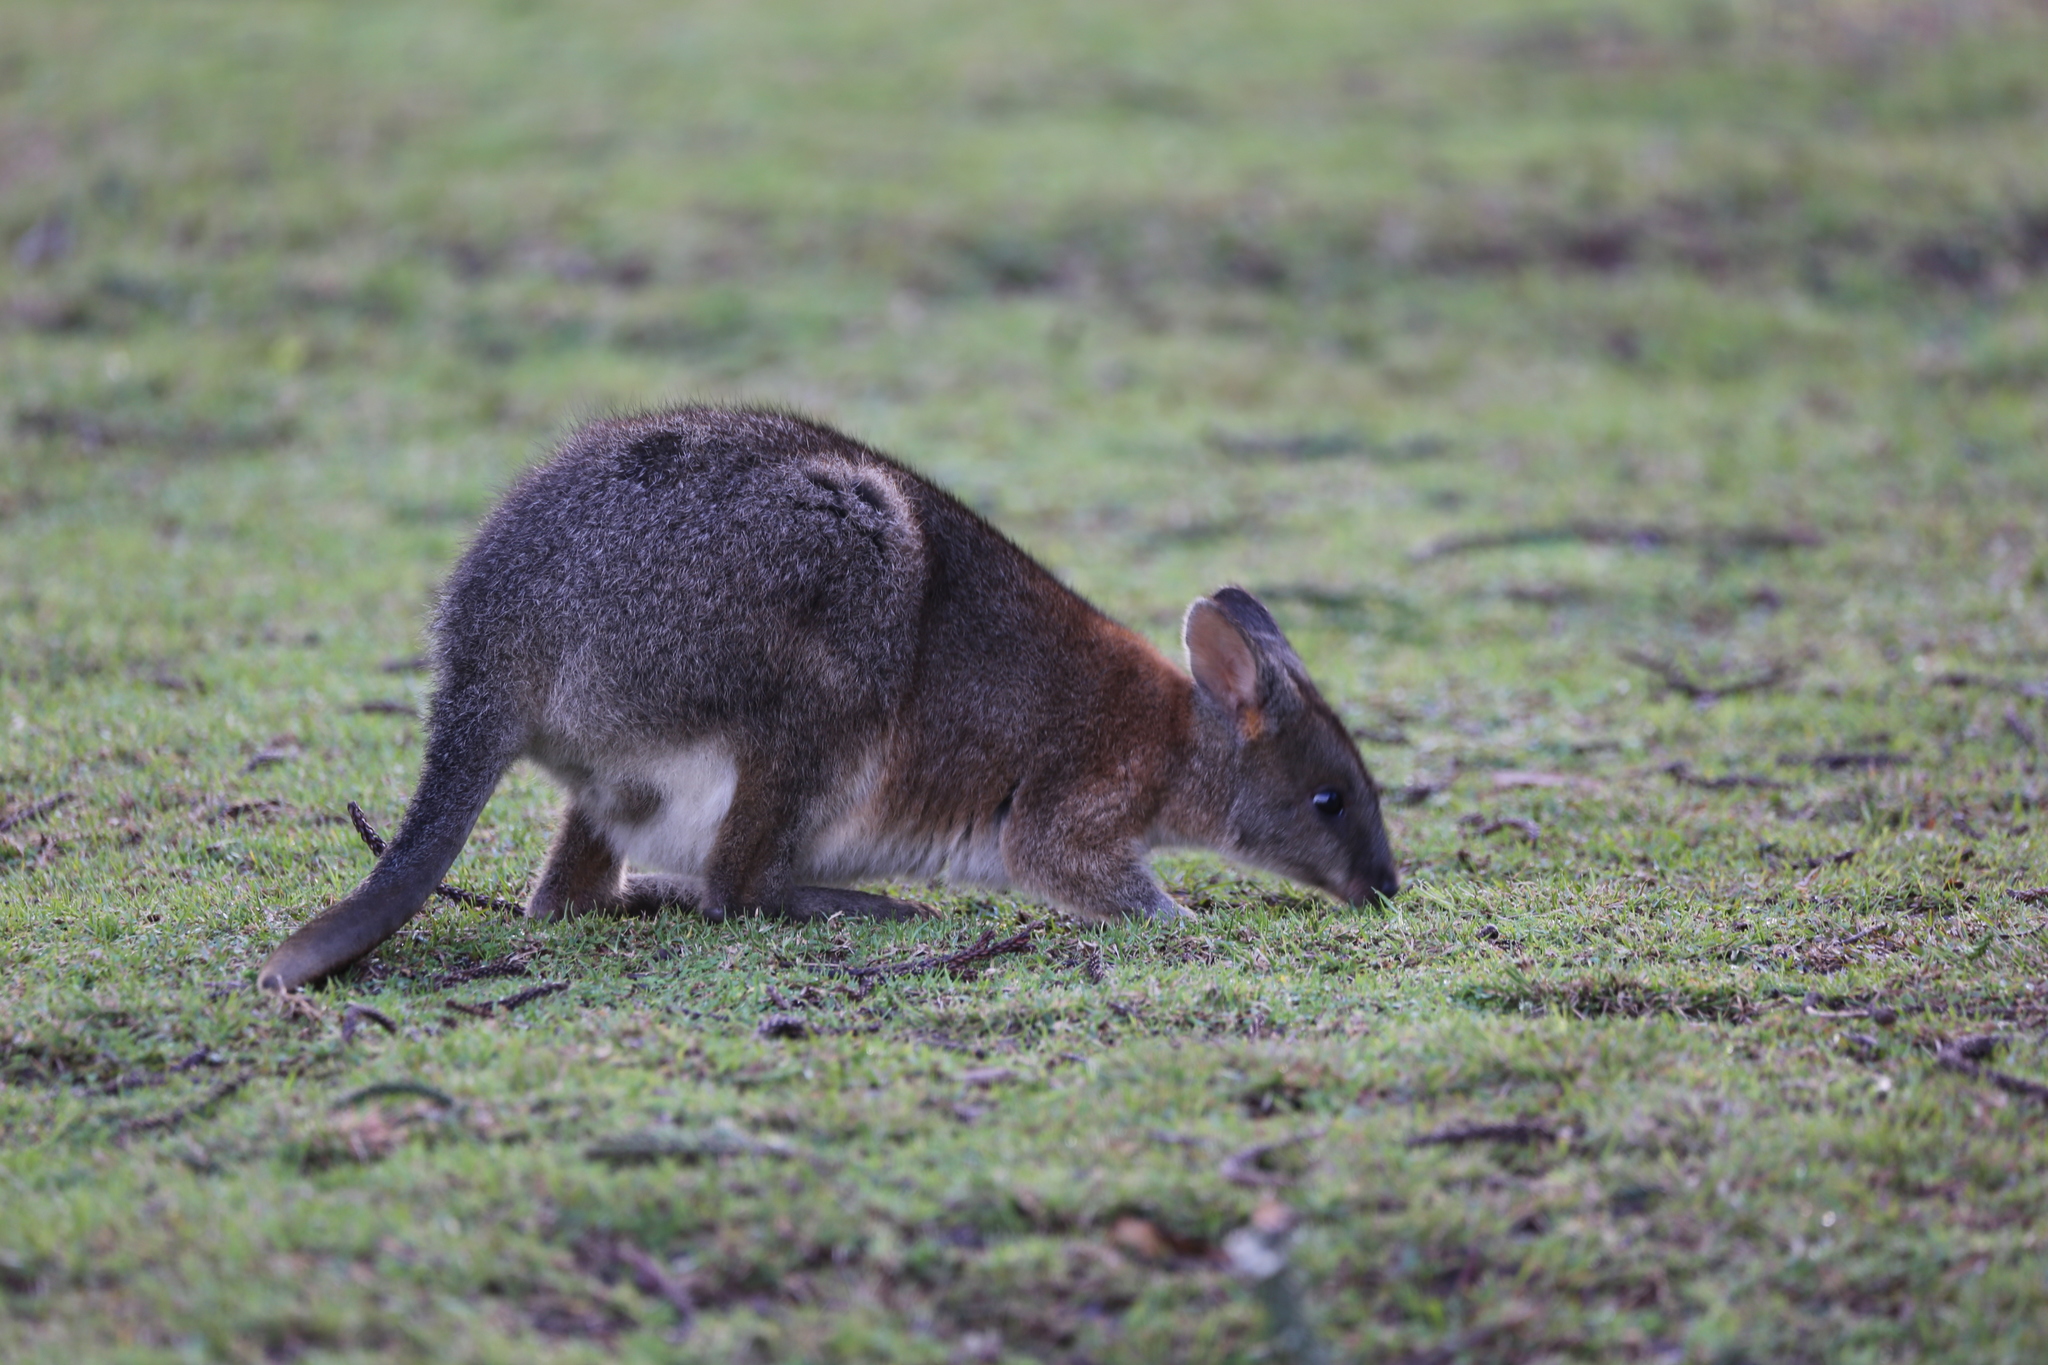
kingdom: Animalia
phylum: Chordata
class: Mammalia
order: Diprotodontia
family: Macropodidae
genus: Thylogale
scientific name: Thylogale thetis
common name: Red-necked pademelon
